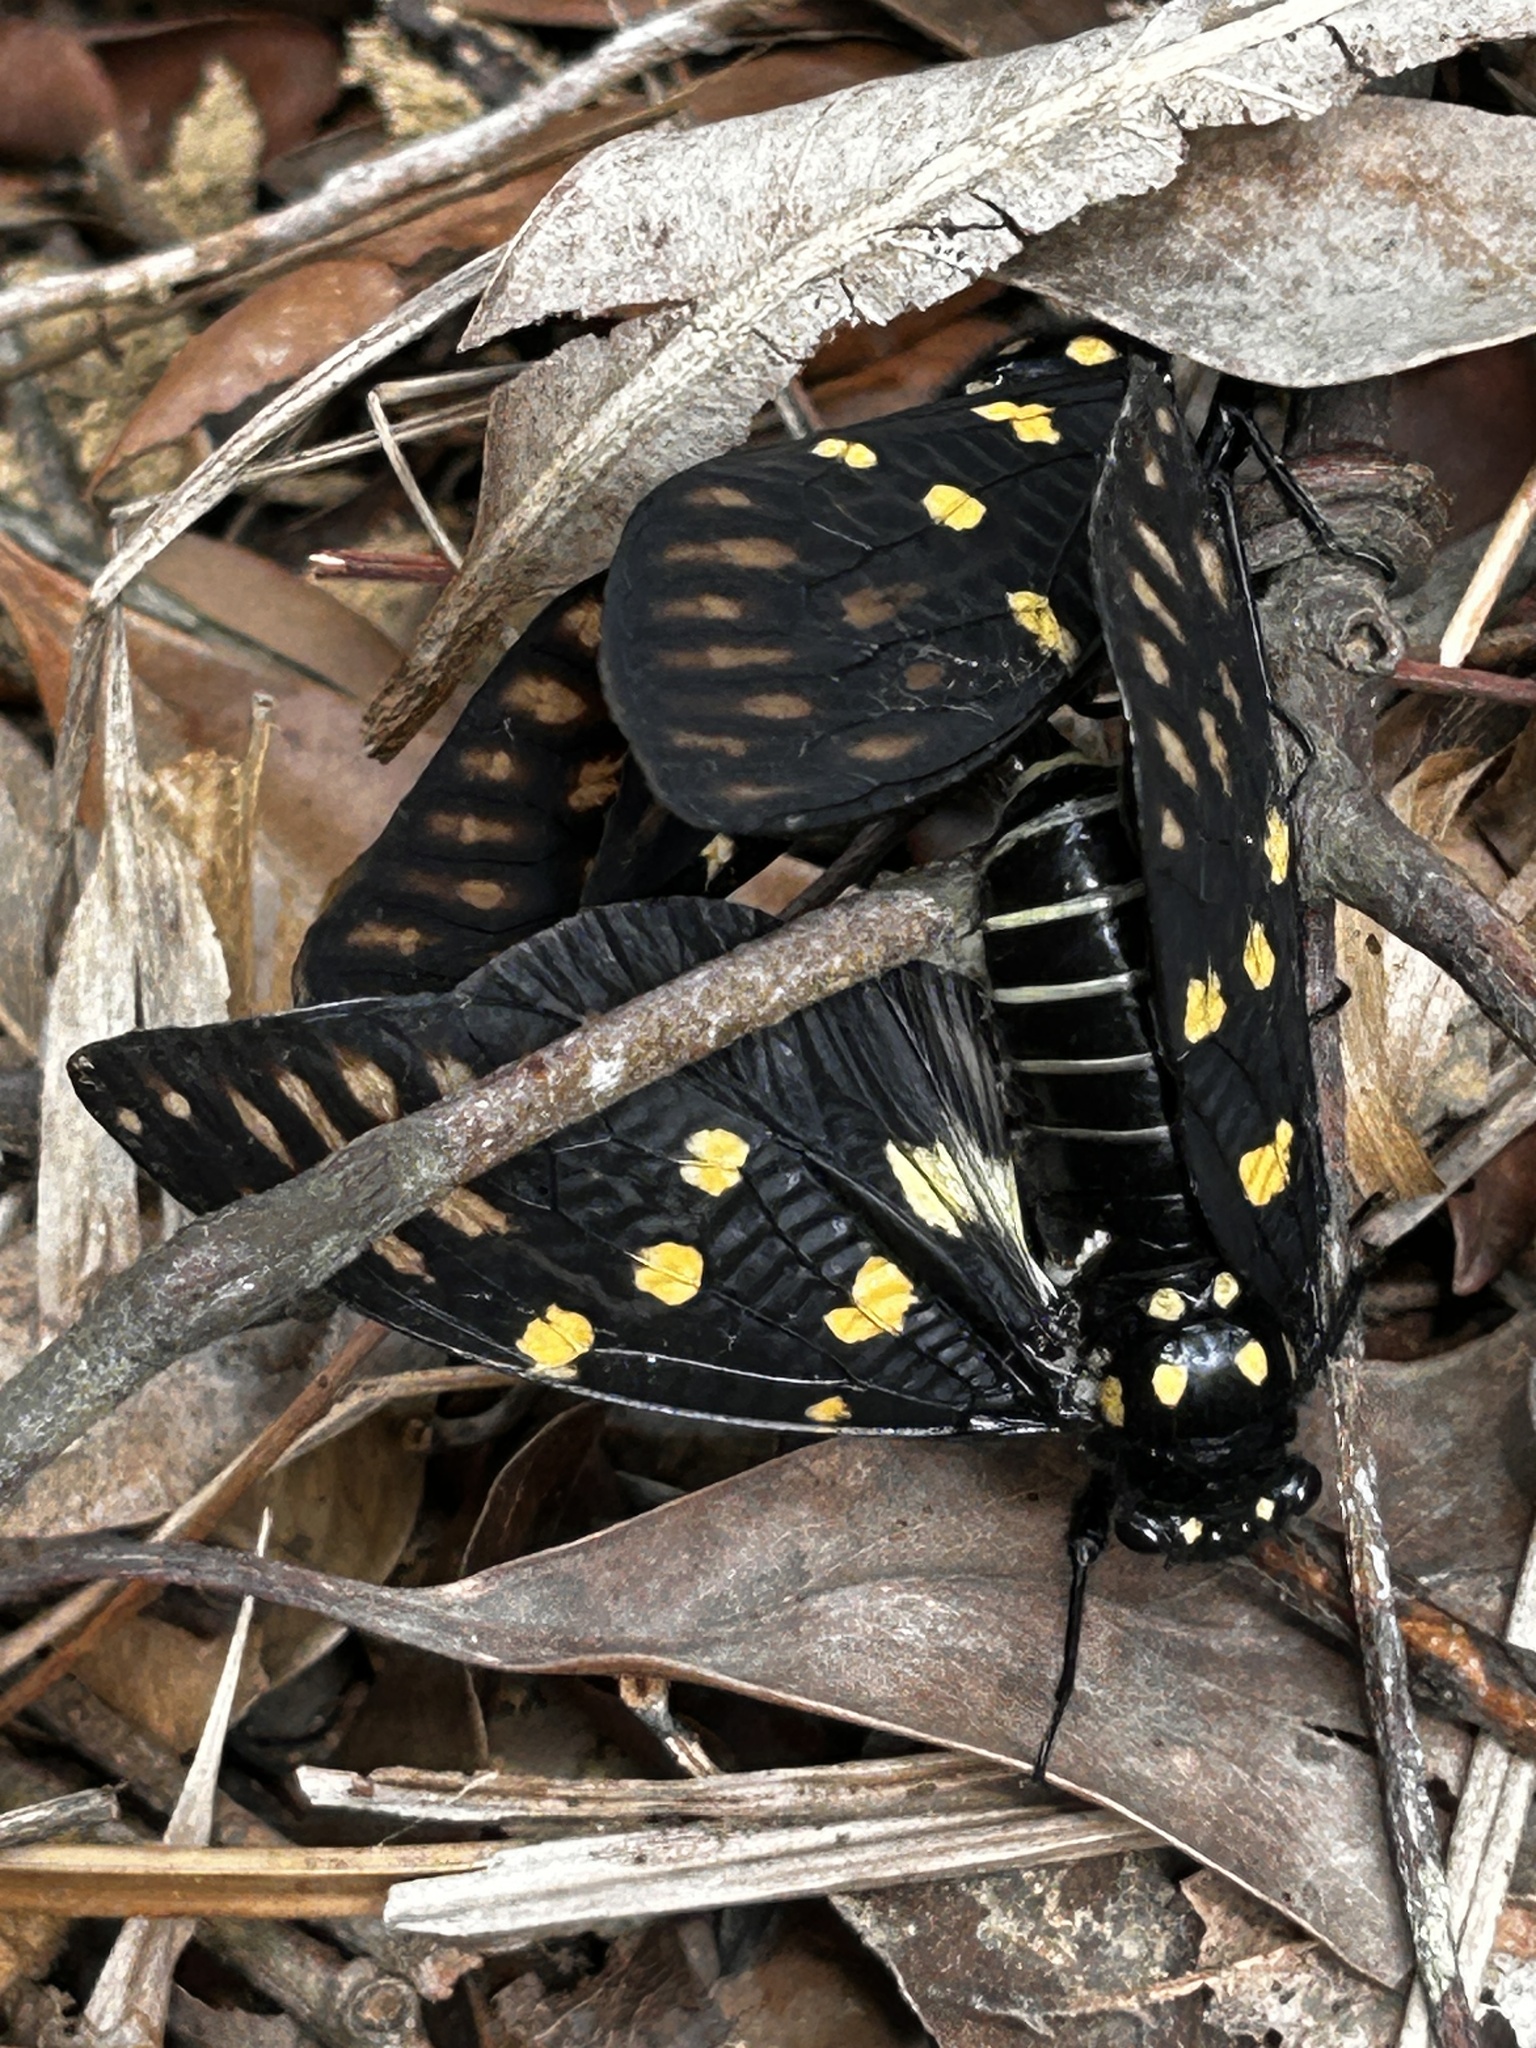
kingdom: Animalia
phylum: Arthropoda
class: Insecta
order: Hemiptera
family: Cicadidae
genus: Gaeana
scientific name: Gaeana maculata
